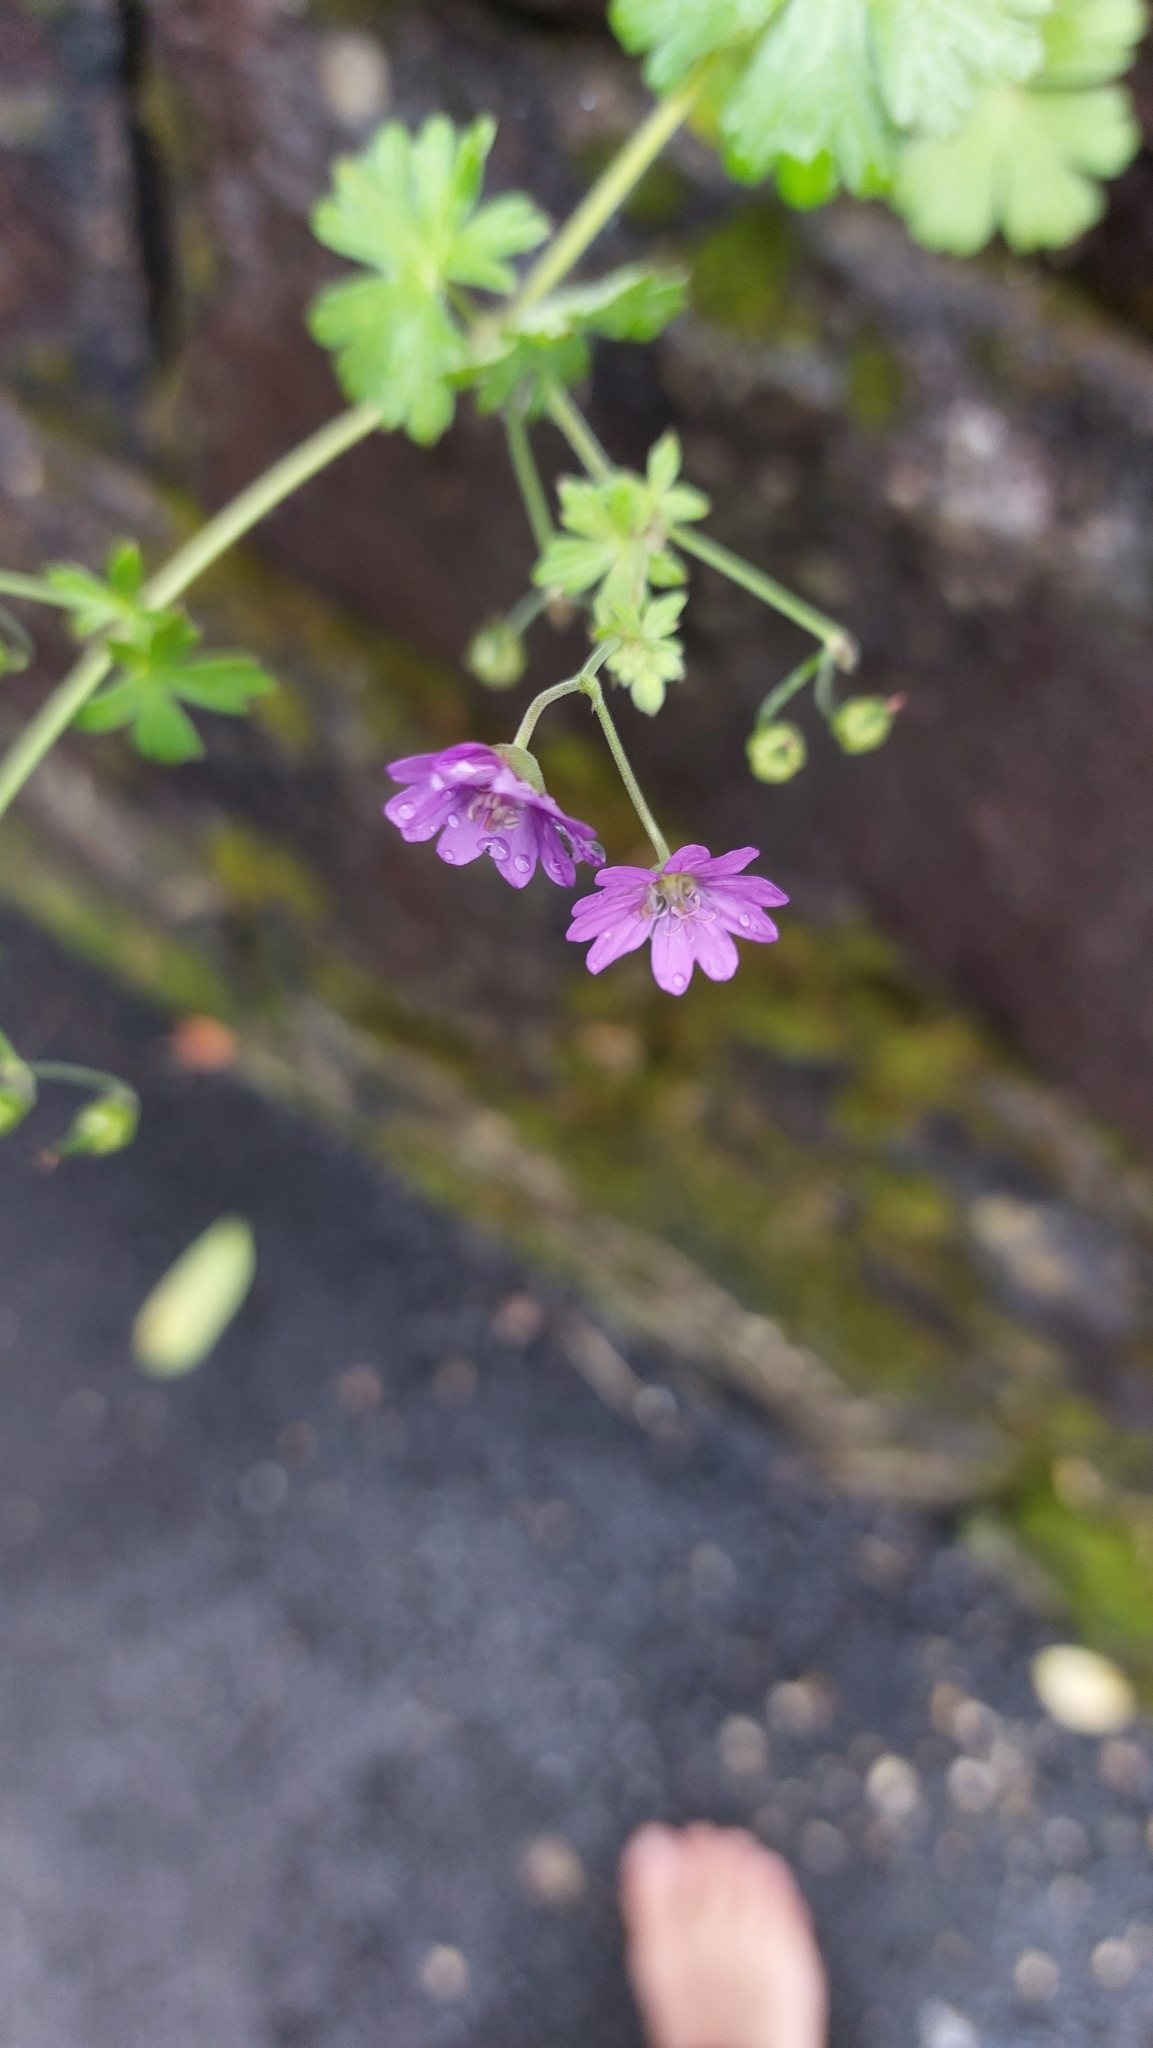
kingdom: Plantae
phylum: Tracheophyta
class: Magnoliopsida
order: Geraniales
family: Geraniaceae
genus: Geranium
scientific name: Geranium pyrenaicum
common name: Hedgerow crane's-bill
